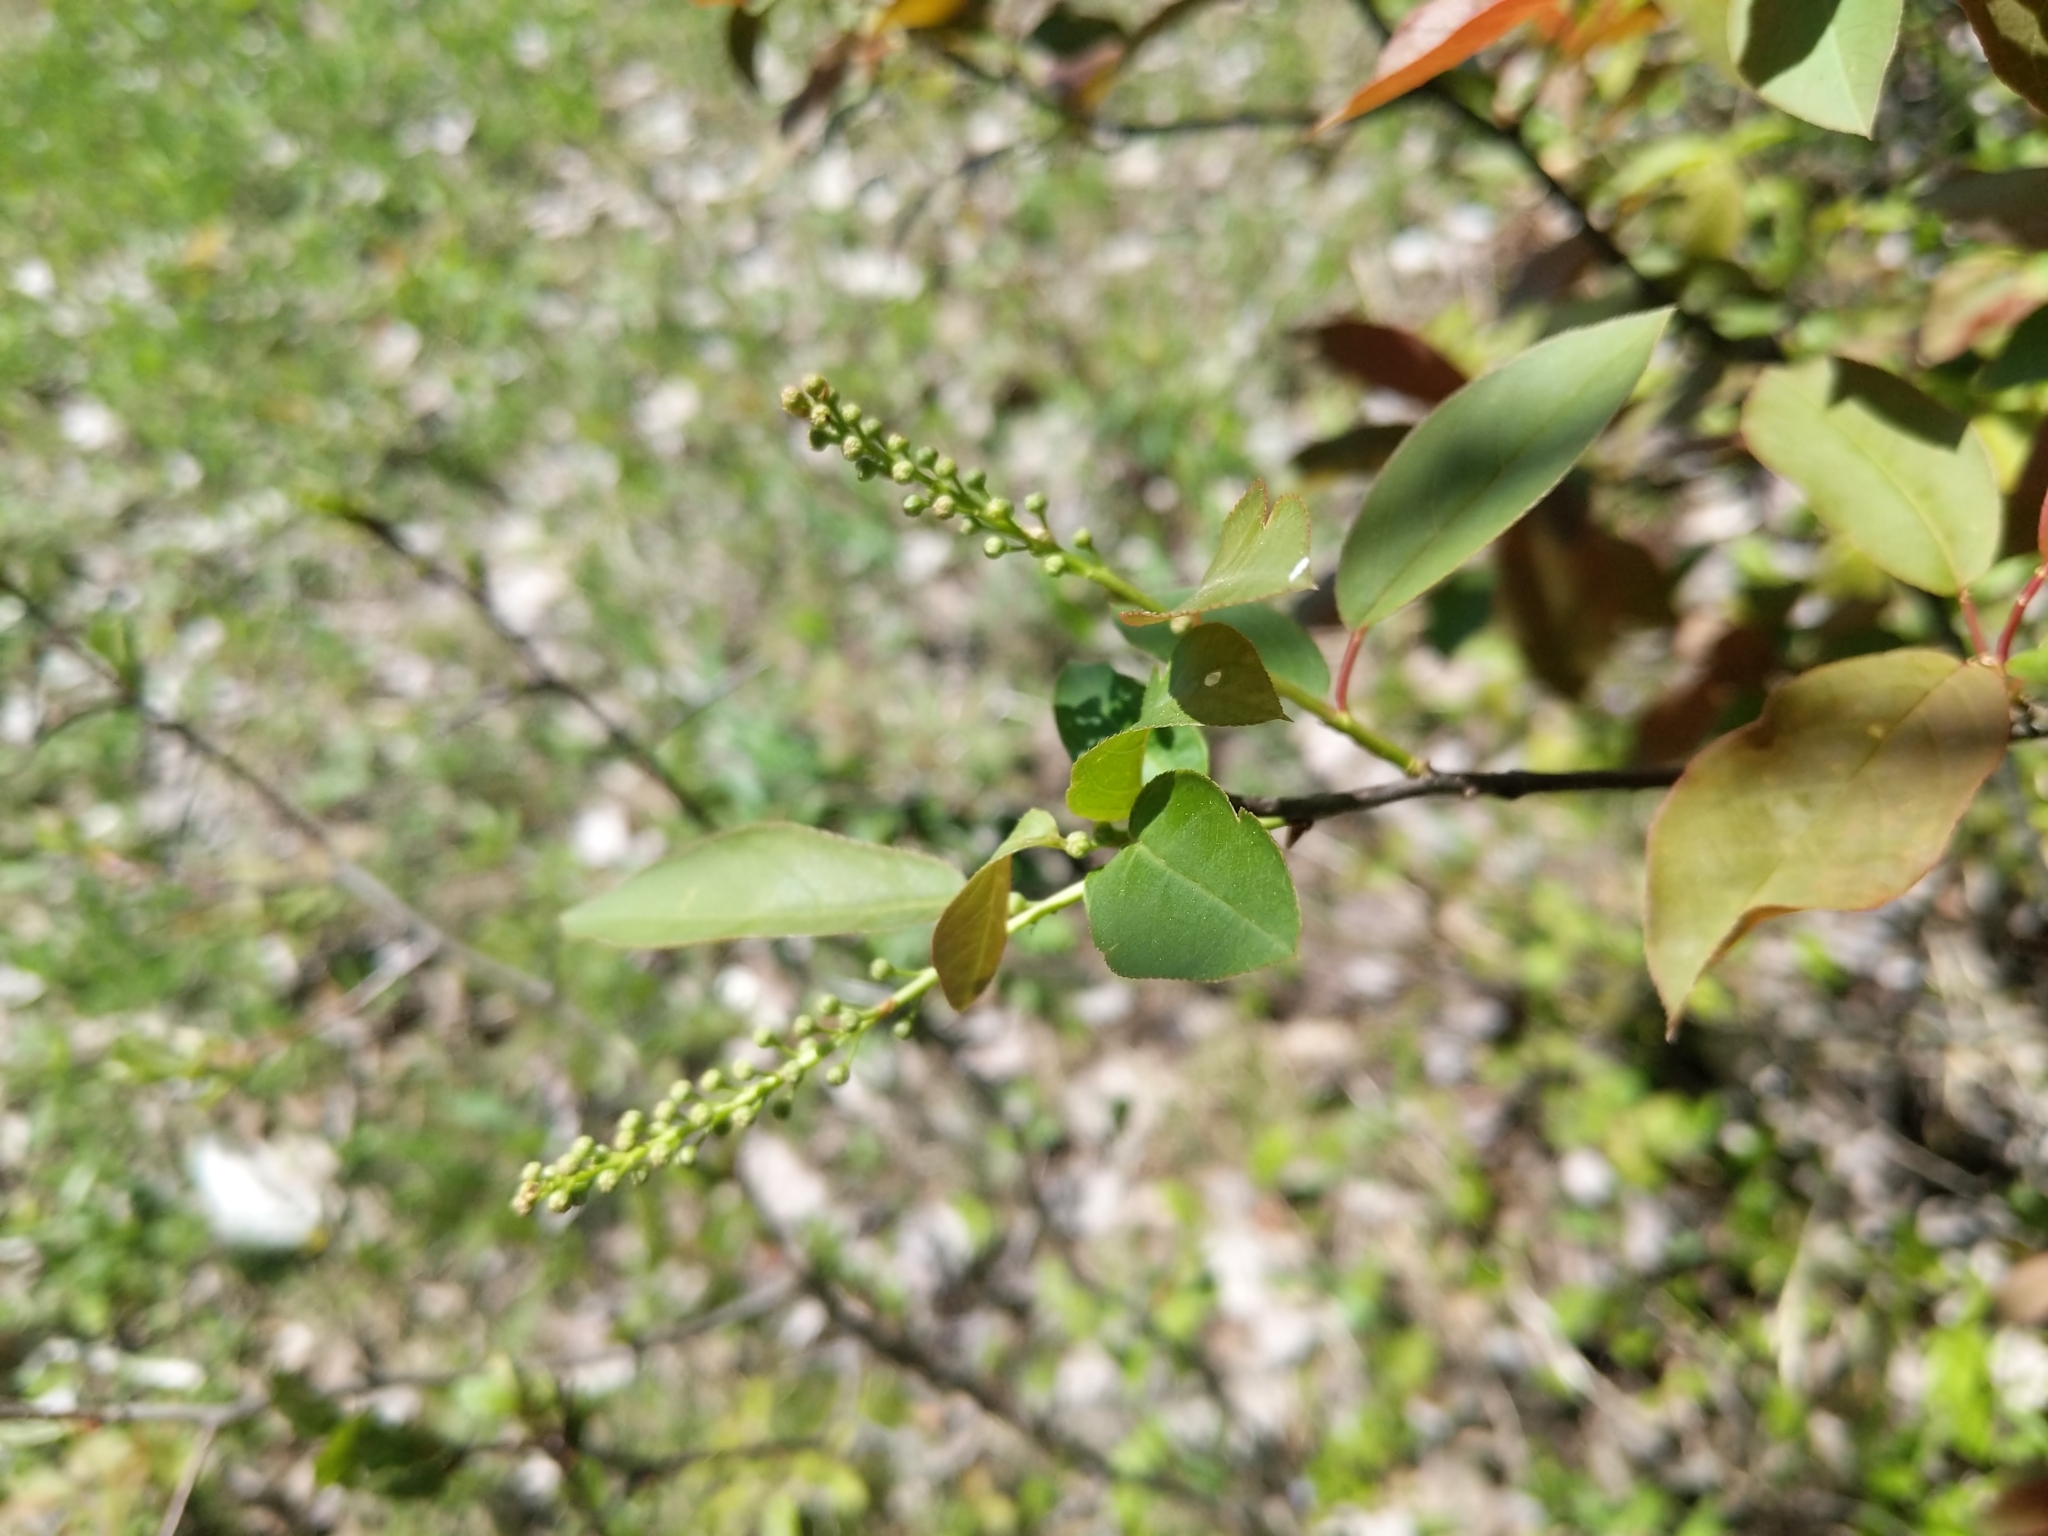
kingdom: Plantae
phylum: Tracheophyta
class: Magnoliopsida
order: Rosales
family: Rosaceae
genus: Prunus
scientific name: Prunus virginiana
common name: Chokecherry
